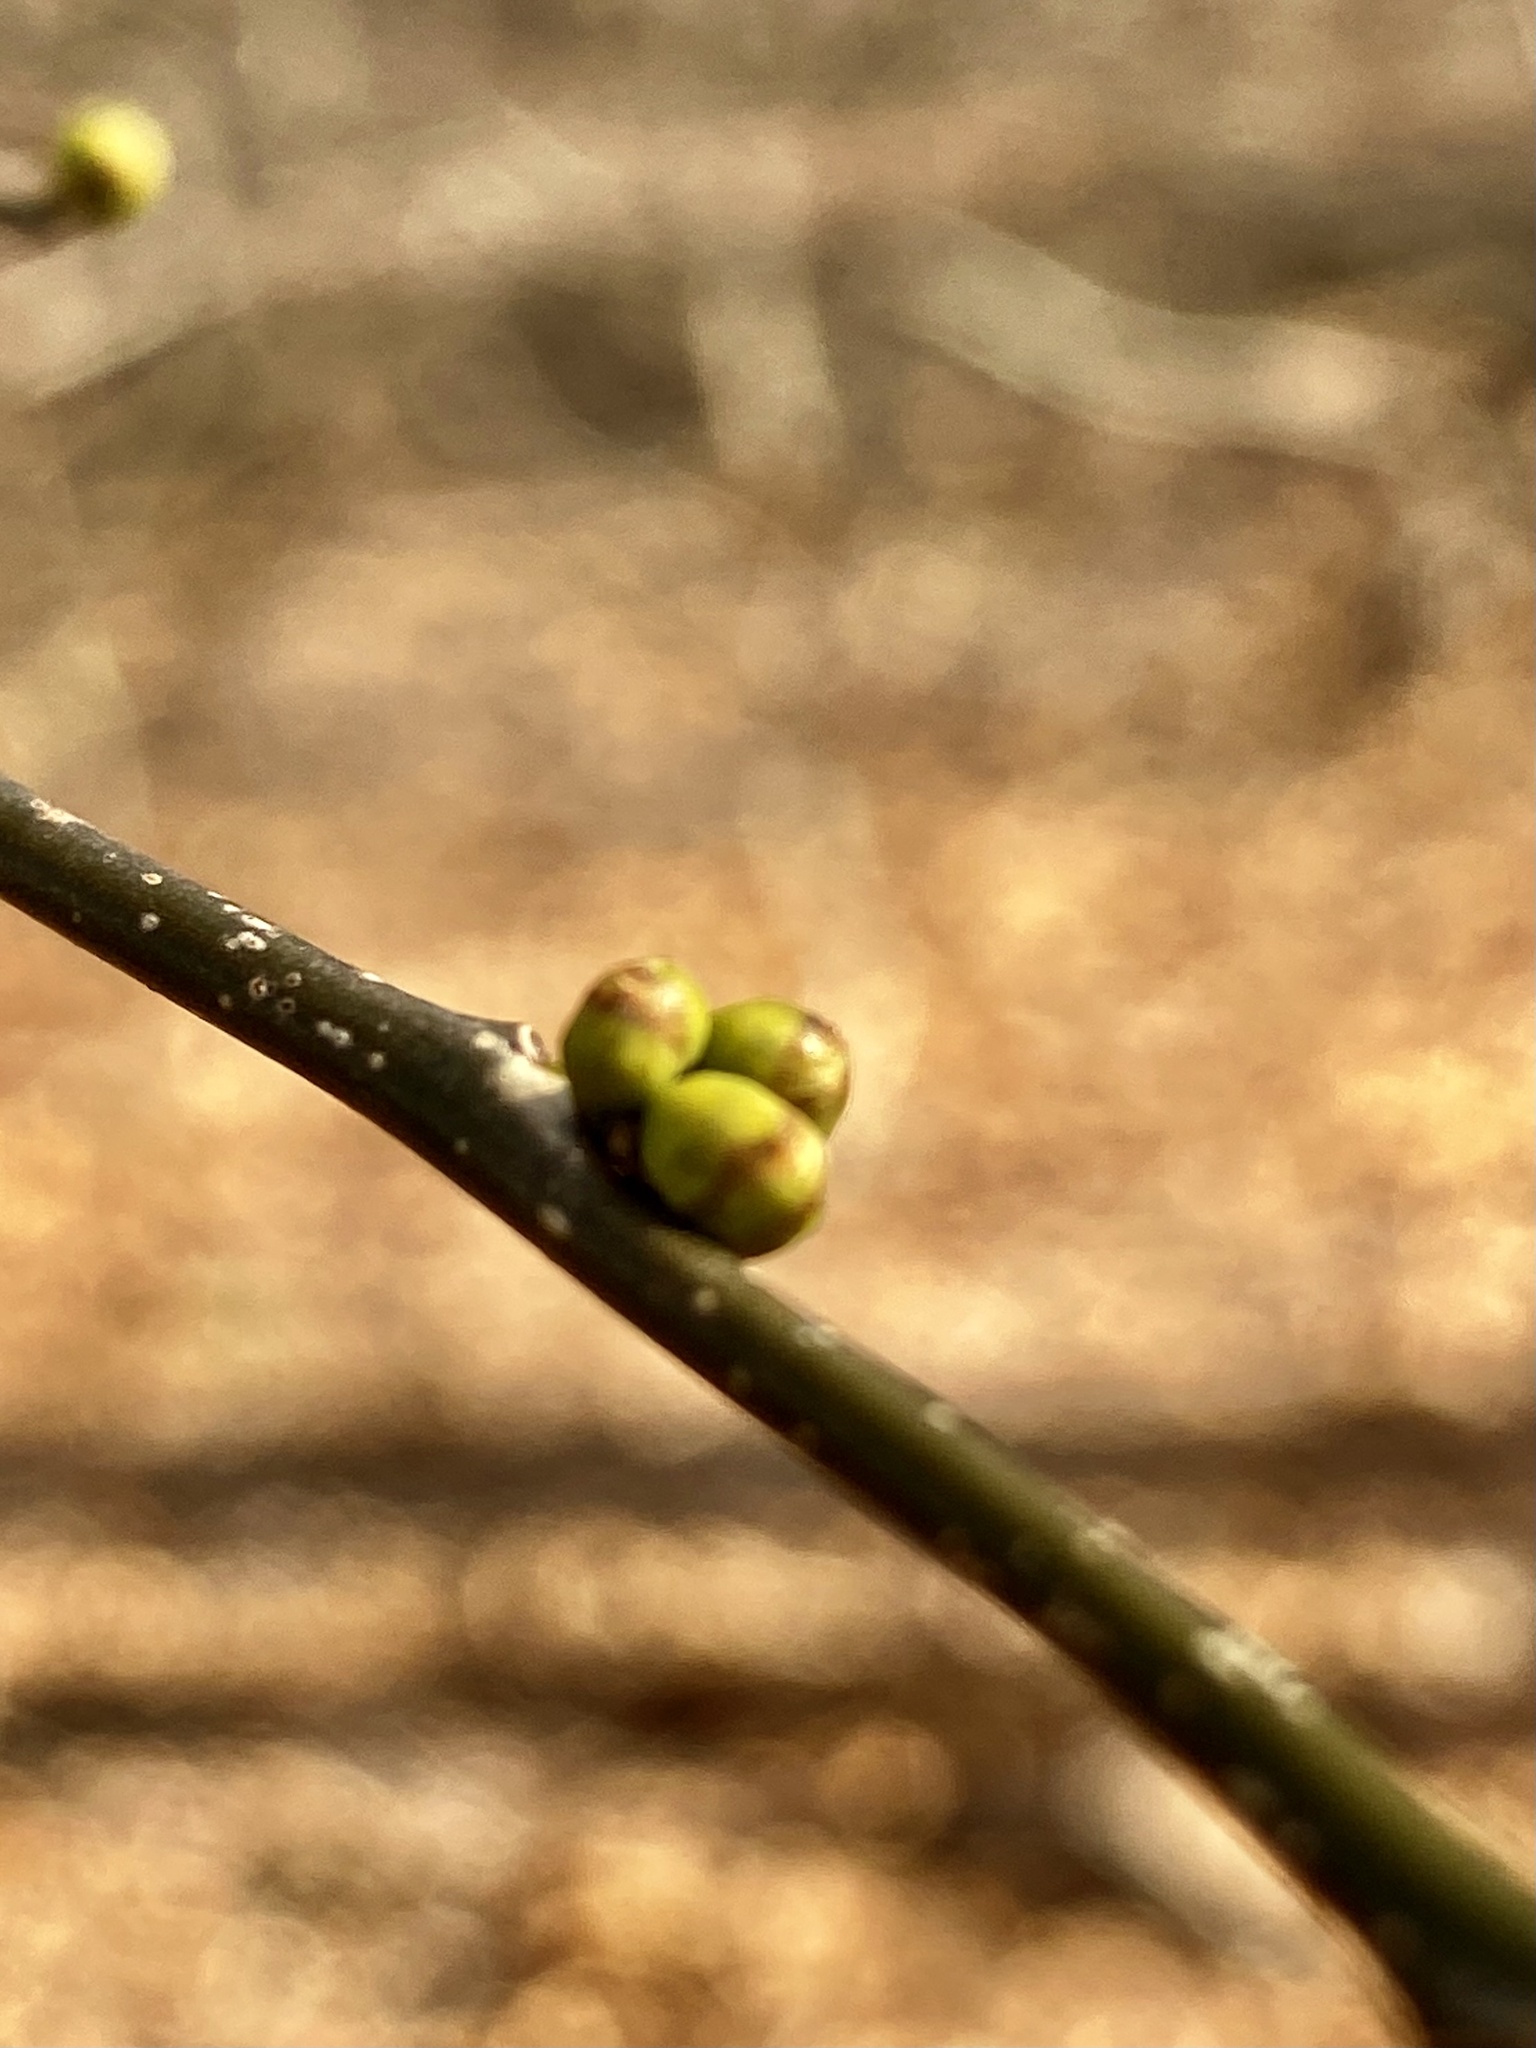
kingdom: Plantae
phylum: Tracheophyta
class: Magnoliopsida
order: Laurales
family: Lauraceae
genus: Lindera
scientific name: Lindera benzoin
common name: Spicebush
